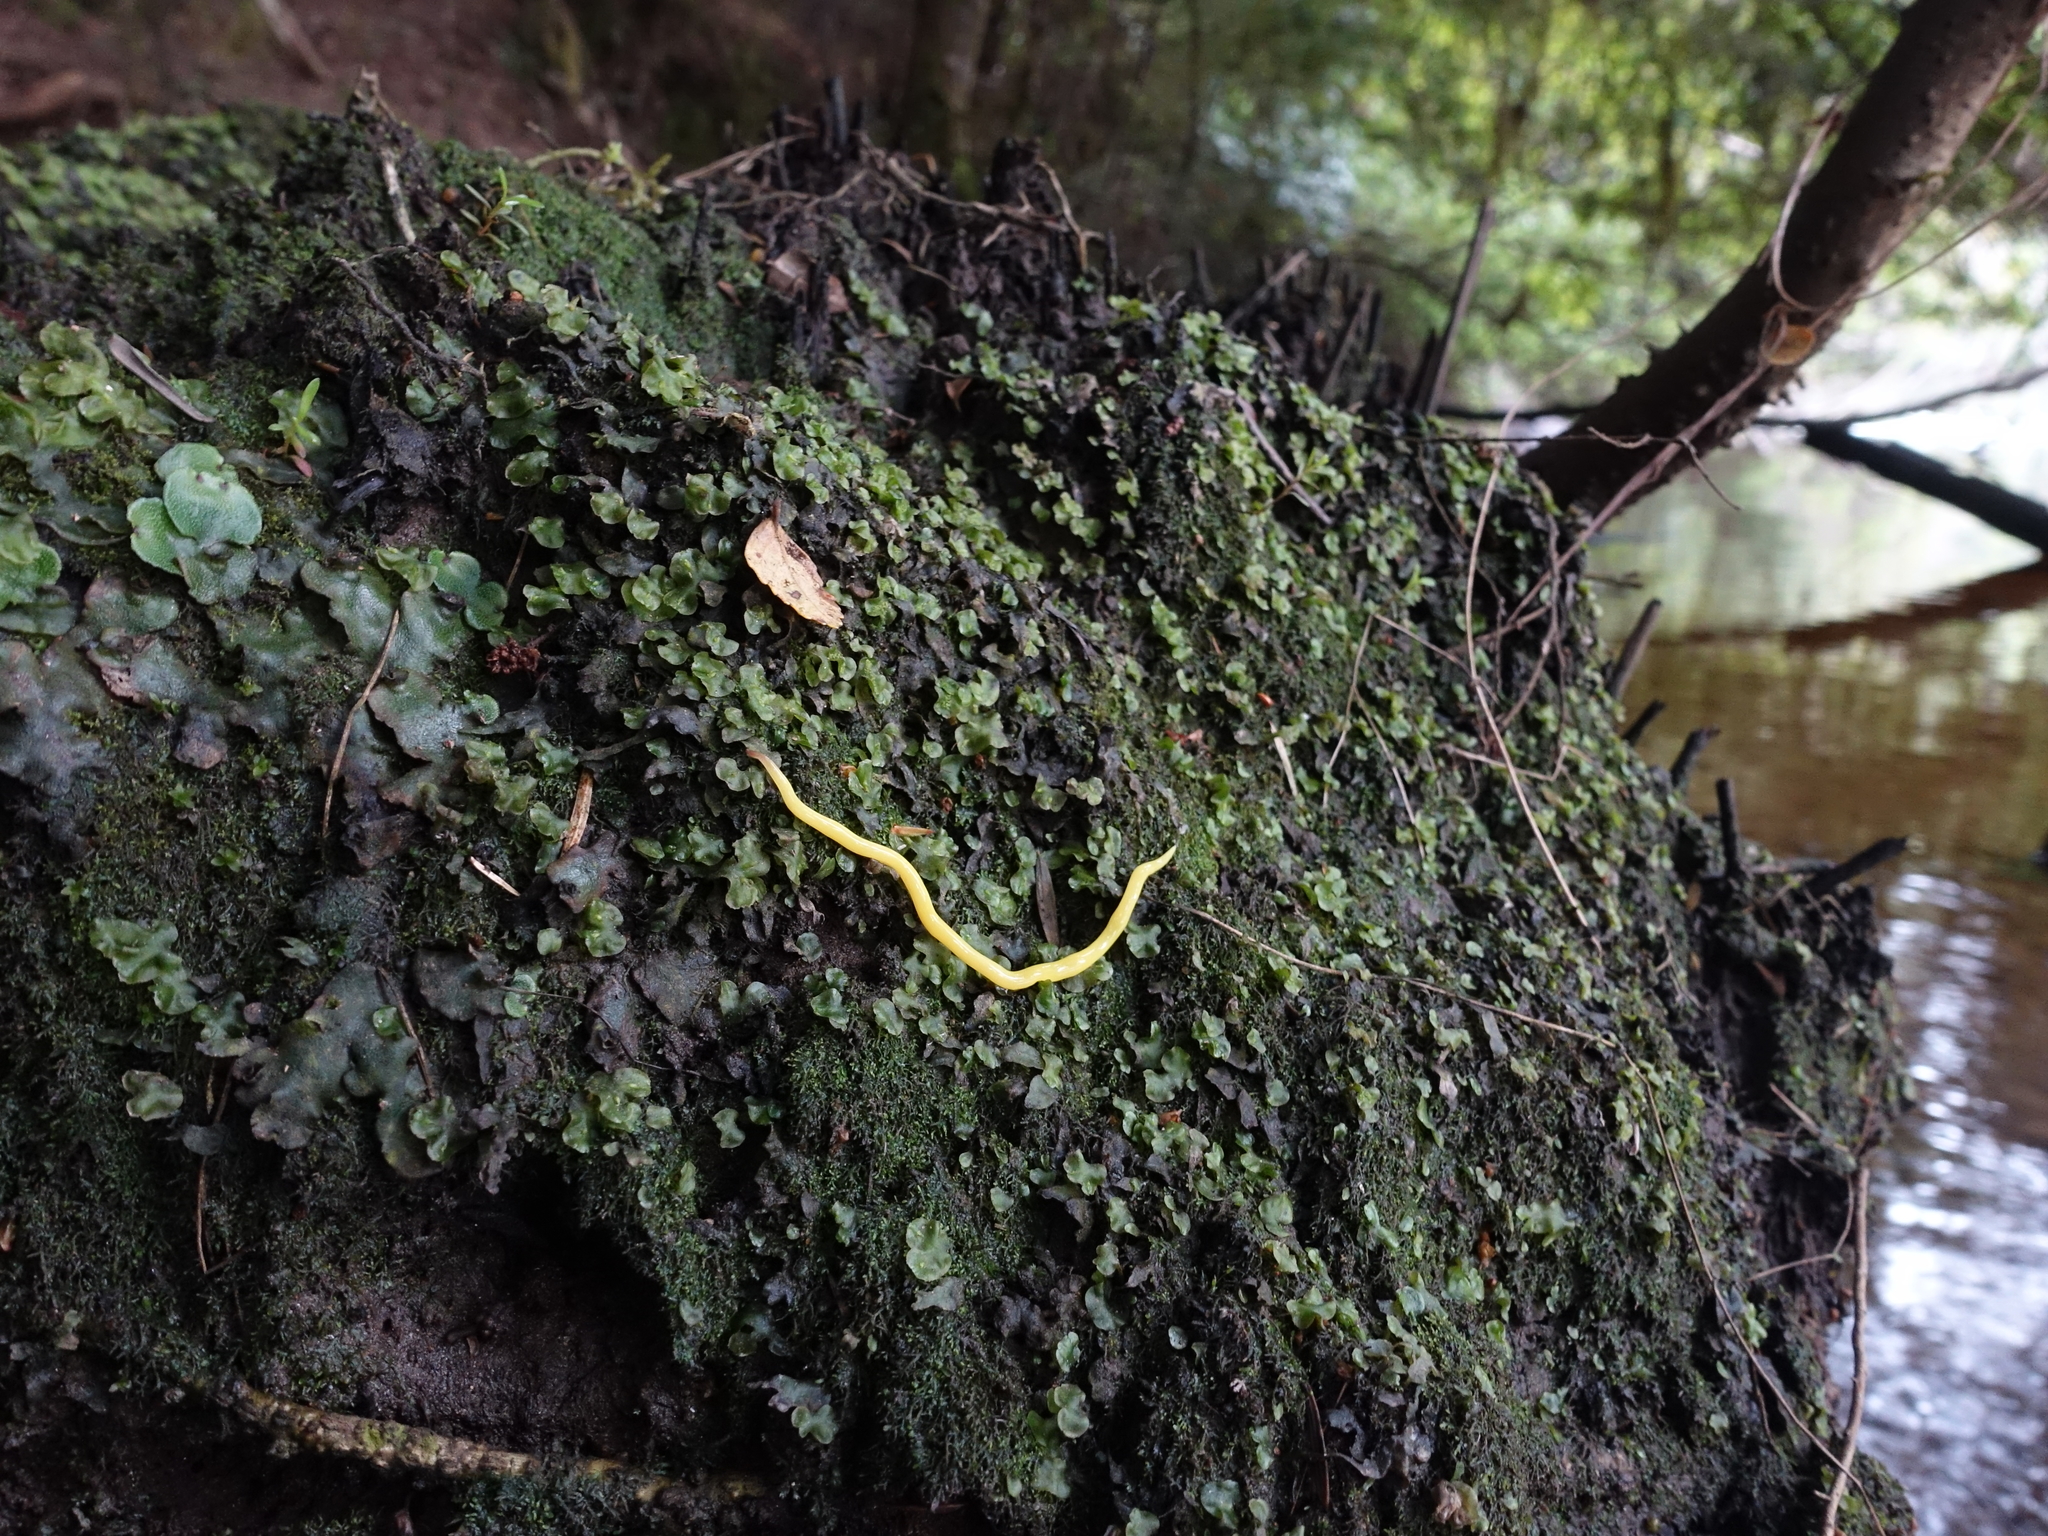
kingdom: Animalia
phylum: Platyhelminthes
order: Tricladida
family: Geoplanidae
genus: Fletchamia
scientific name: Fletchamia sugdeni
